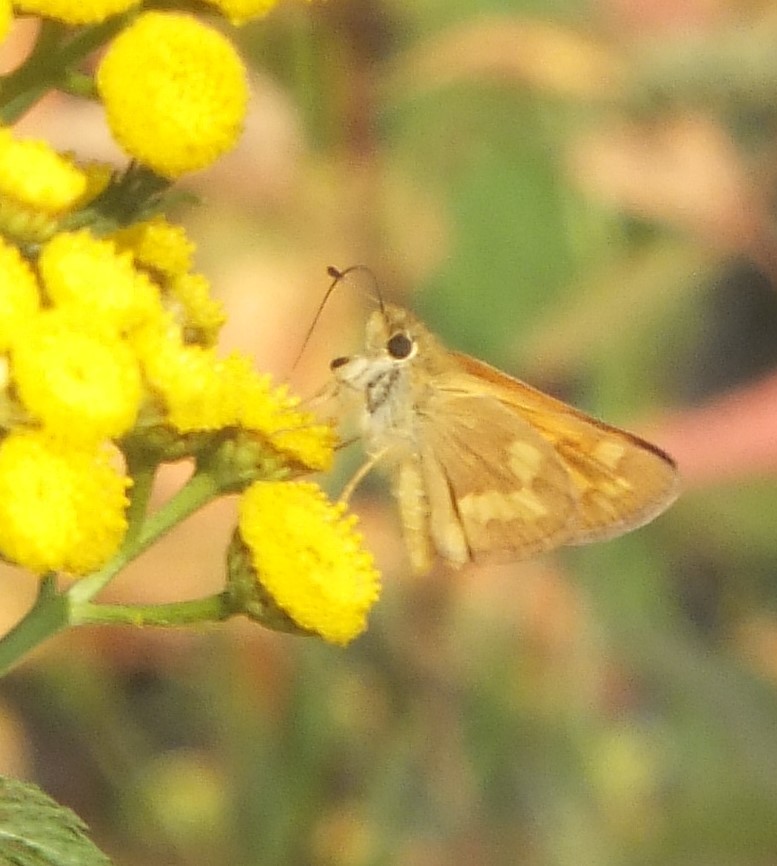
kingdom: Animalia
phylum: Arthropoda
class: Insecta
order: Lepidoptera
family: Hesperiidae
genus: Ochlodes
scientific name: Ochlodes sylvanoides
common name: Woodland skipper
